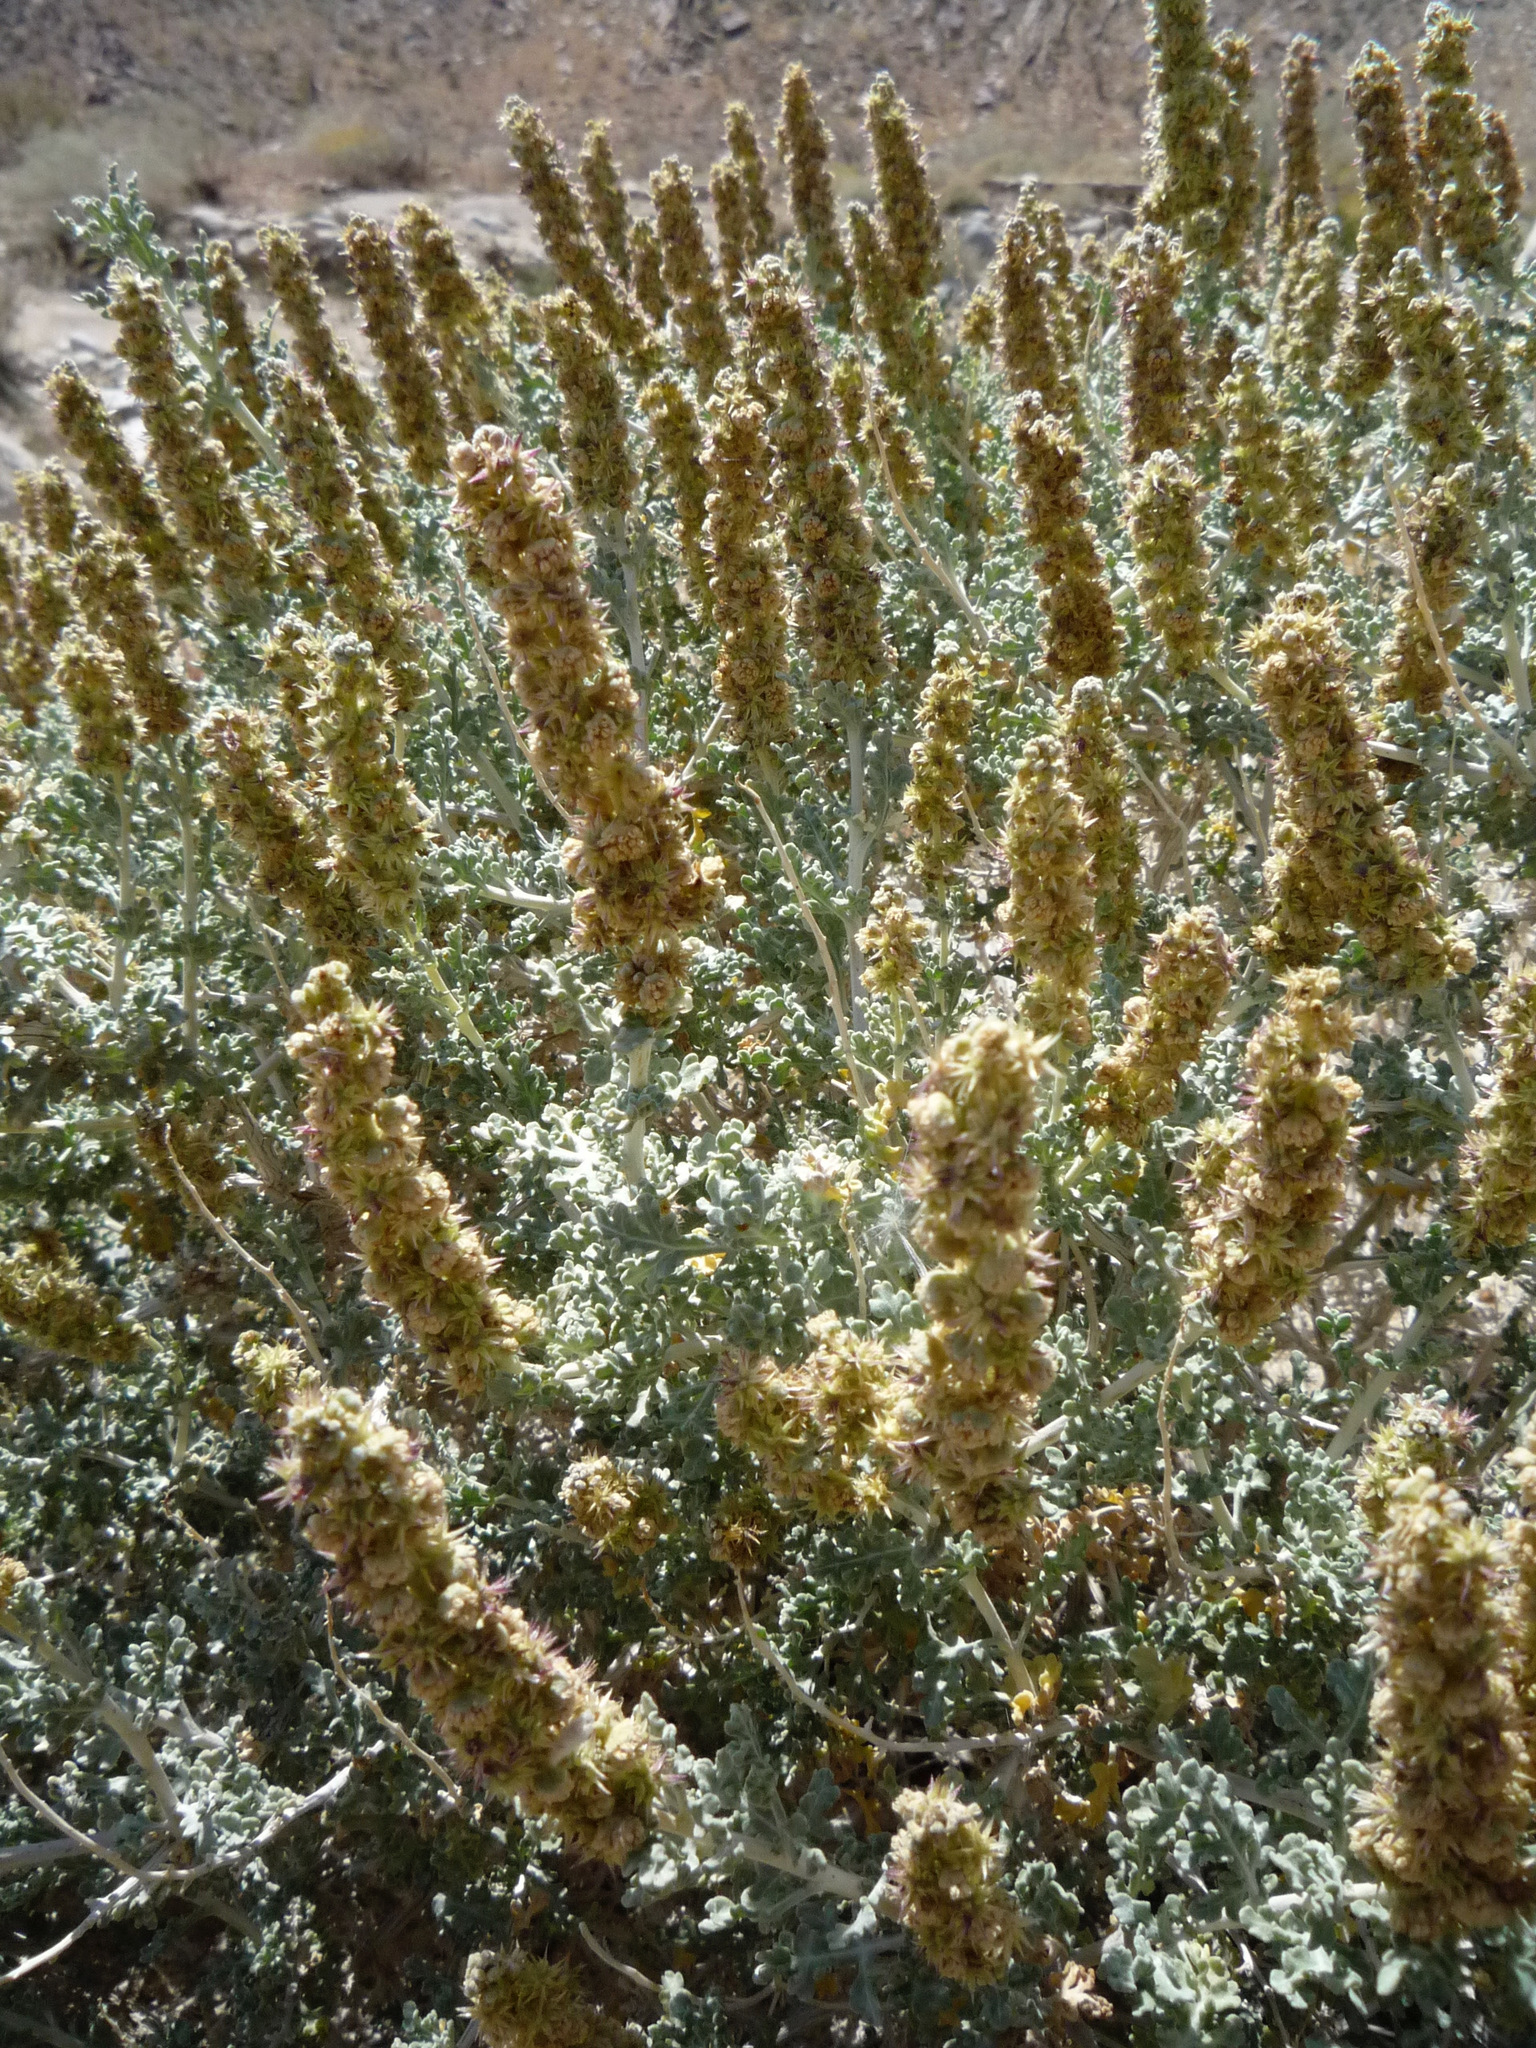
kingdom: Plantae
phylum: Tracheophyta
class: Magnoliopsida
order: Asterales
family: Asteraceae
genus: Ambrosia
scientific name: Ambrosia dumosa
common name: Bur-sage
